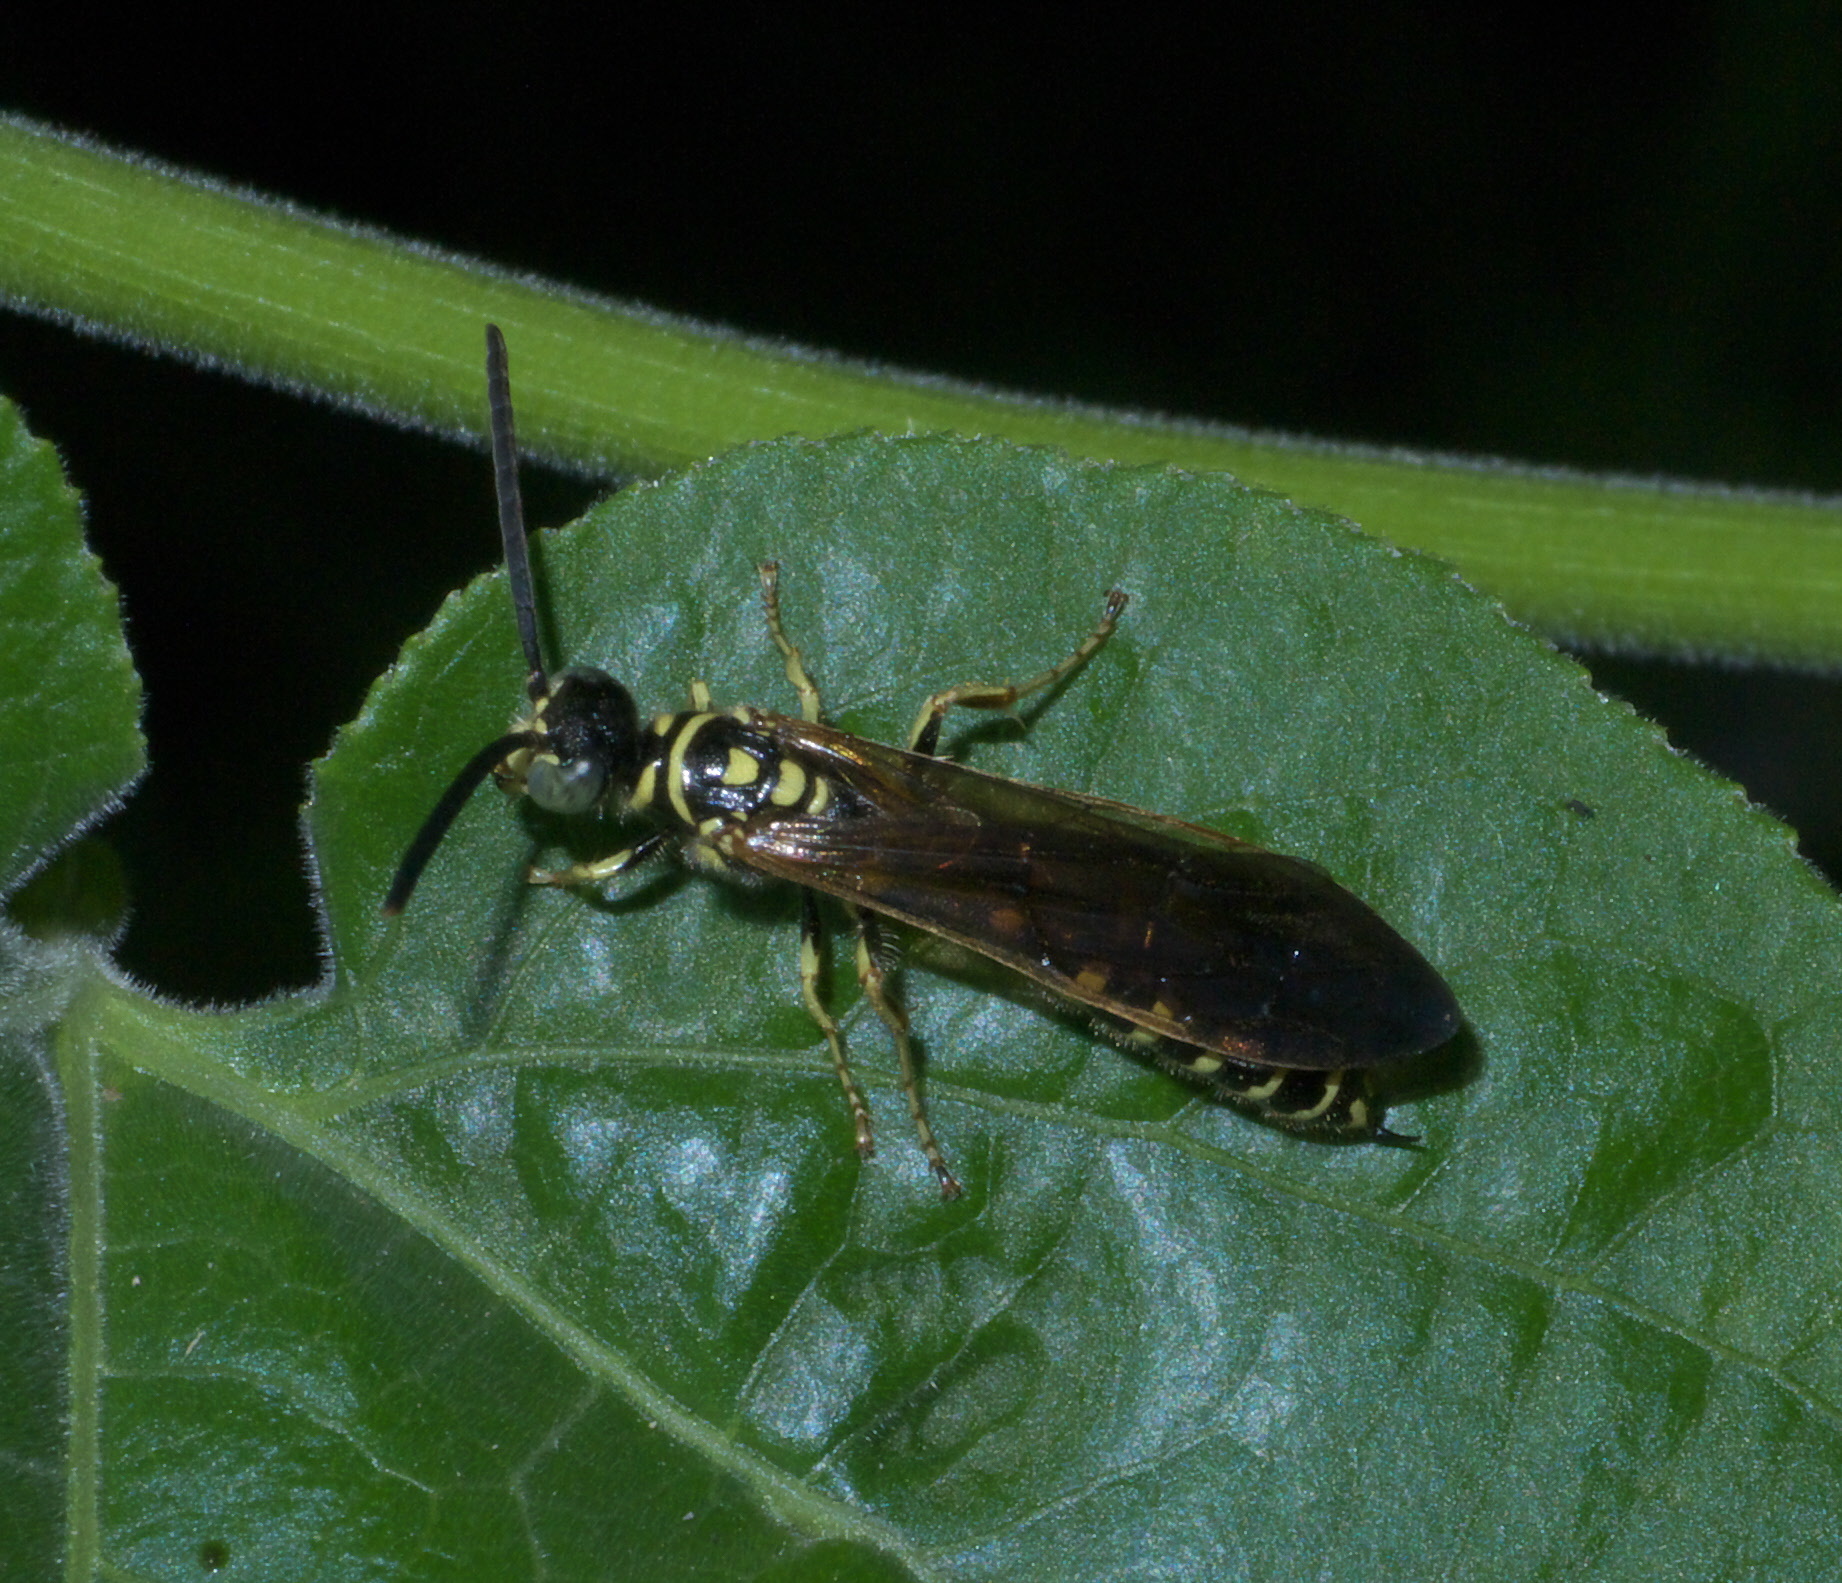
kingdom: Animalia
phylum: Arthropoda
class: Insecta
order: Hymenoptera
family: Tiphiidae
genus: Myzinum
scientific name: Myzinum quinquecinctum
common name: Five-banded thynnid wasp
